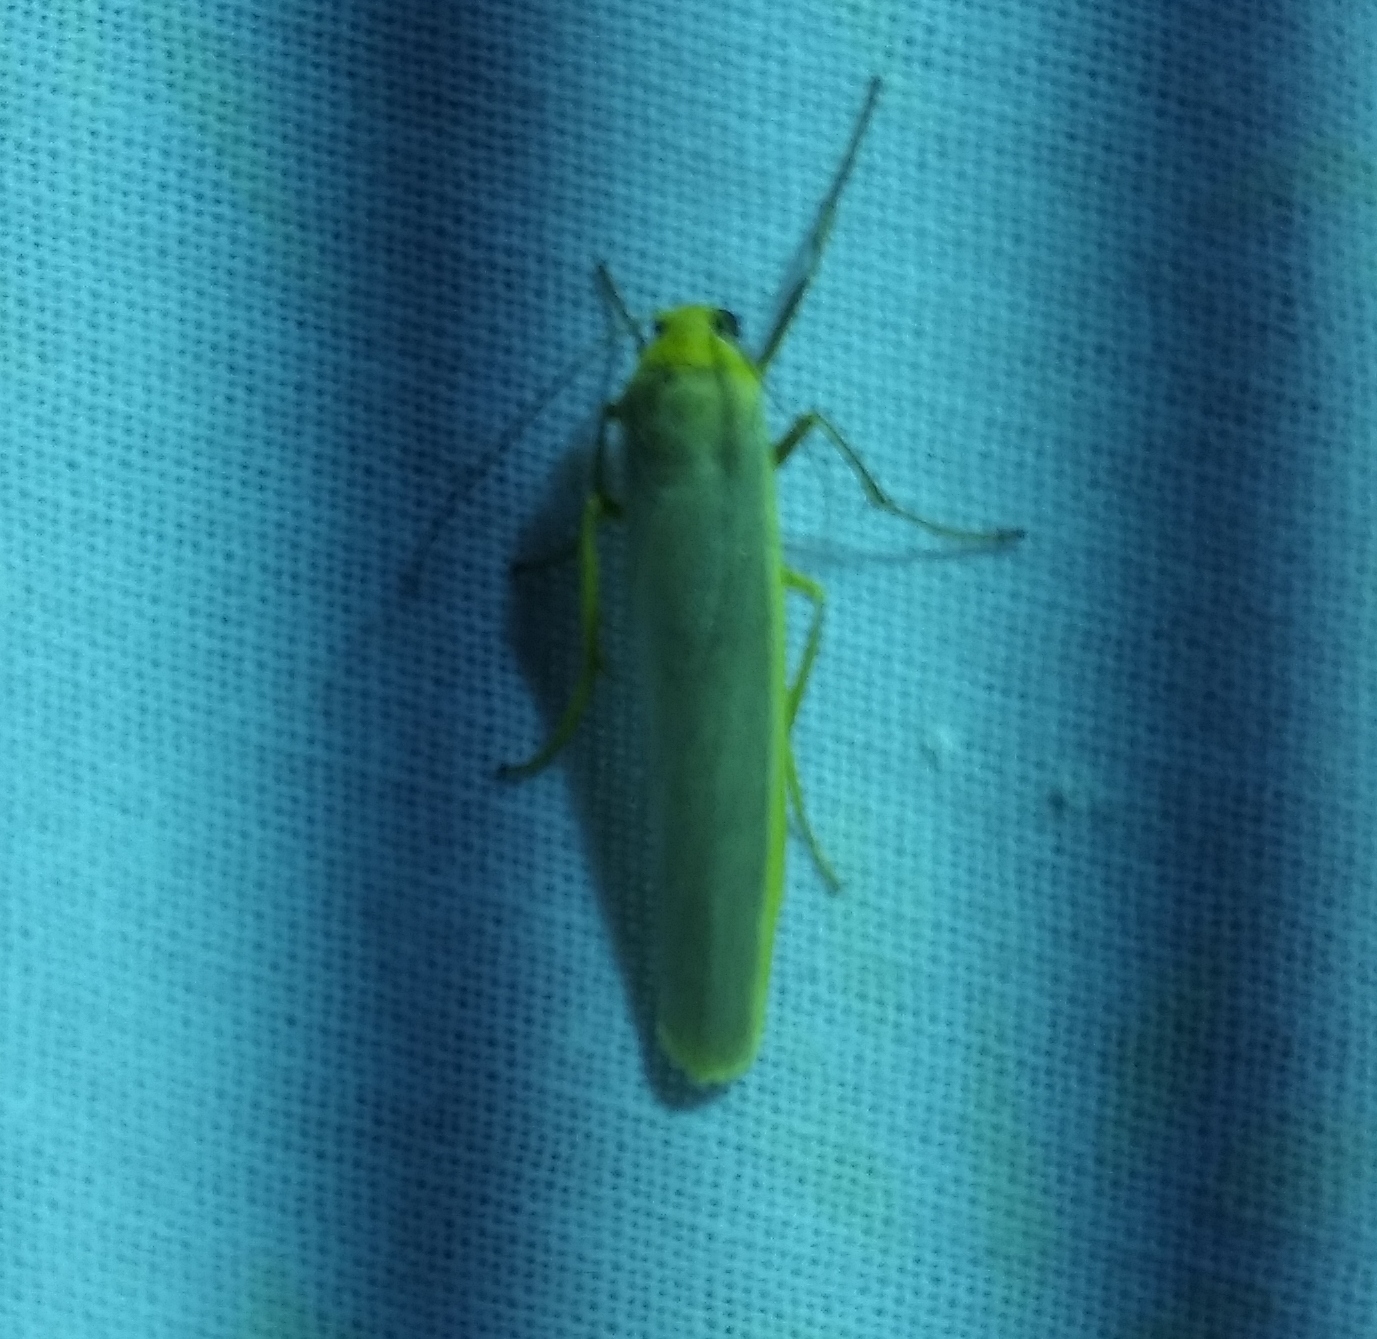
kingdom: Animalia
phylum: Arthropoda
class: Insecta
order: Lepidoptera
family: Erebidae
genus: Manulea
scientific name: Manulea complana
